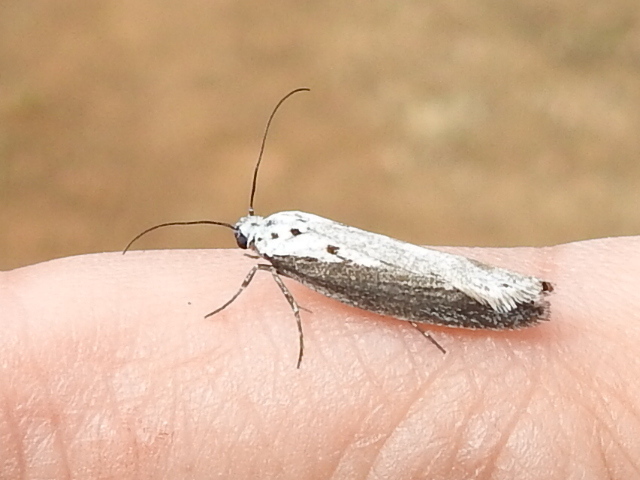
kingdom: Animalia
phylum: Arthropoda
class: Insecta
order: Lepidoptera
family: Ethmiidae
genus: Ethmia
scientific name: Ethmia arctostaphylella
